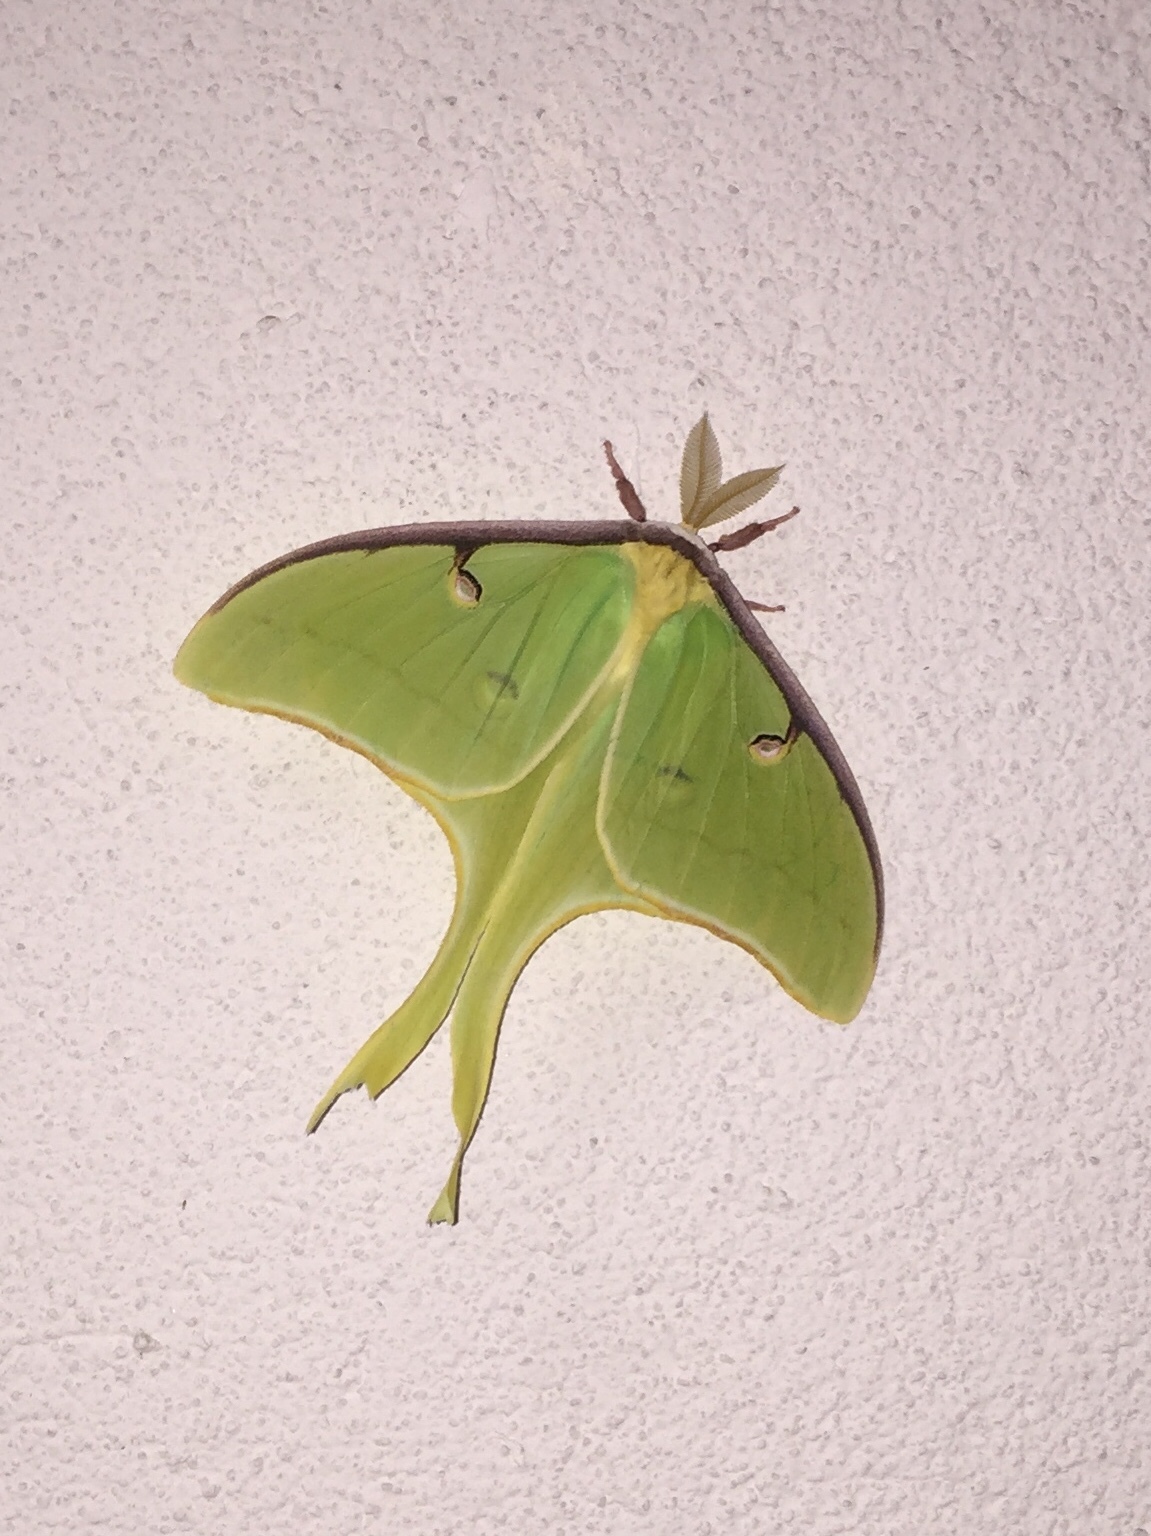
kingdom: Animalia
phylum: Arthropoda
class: Insecta
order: Lepidoptera
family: Saturniidae
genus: Actias
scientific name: Actias luna
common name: Luna moth
